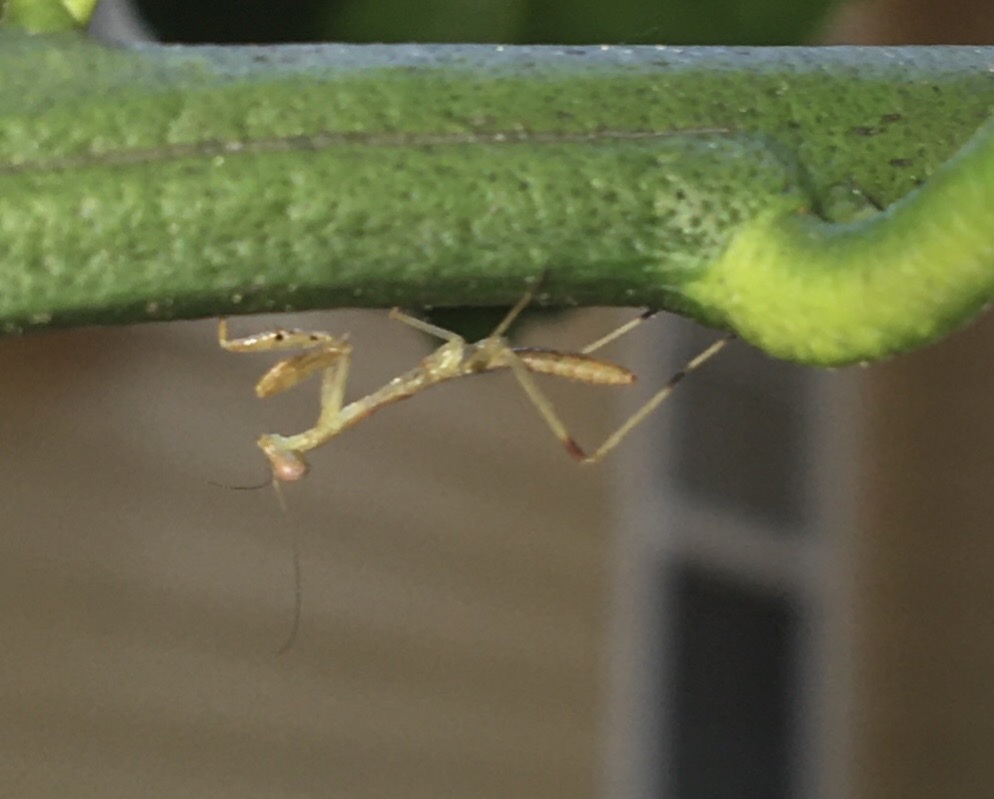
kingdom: Animalia
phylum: Arthropoda
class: Insecta
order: Mantodea
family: Mantidae
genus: Stagmomantis
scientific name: Stagmomantis carolina
